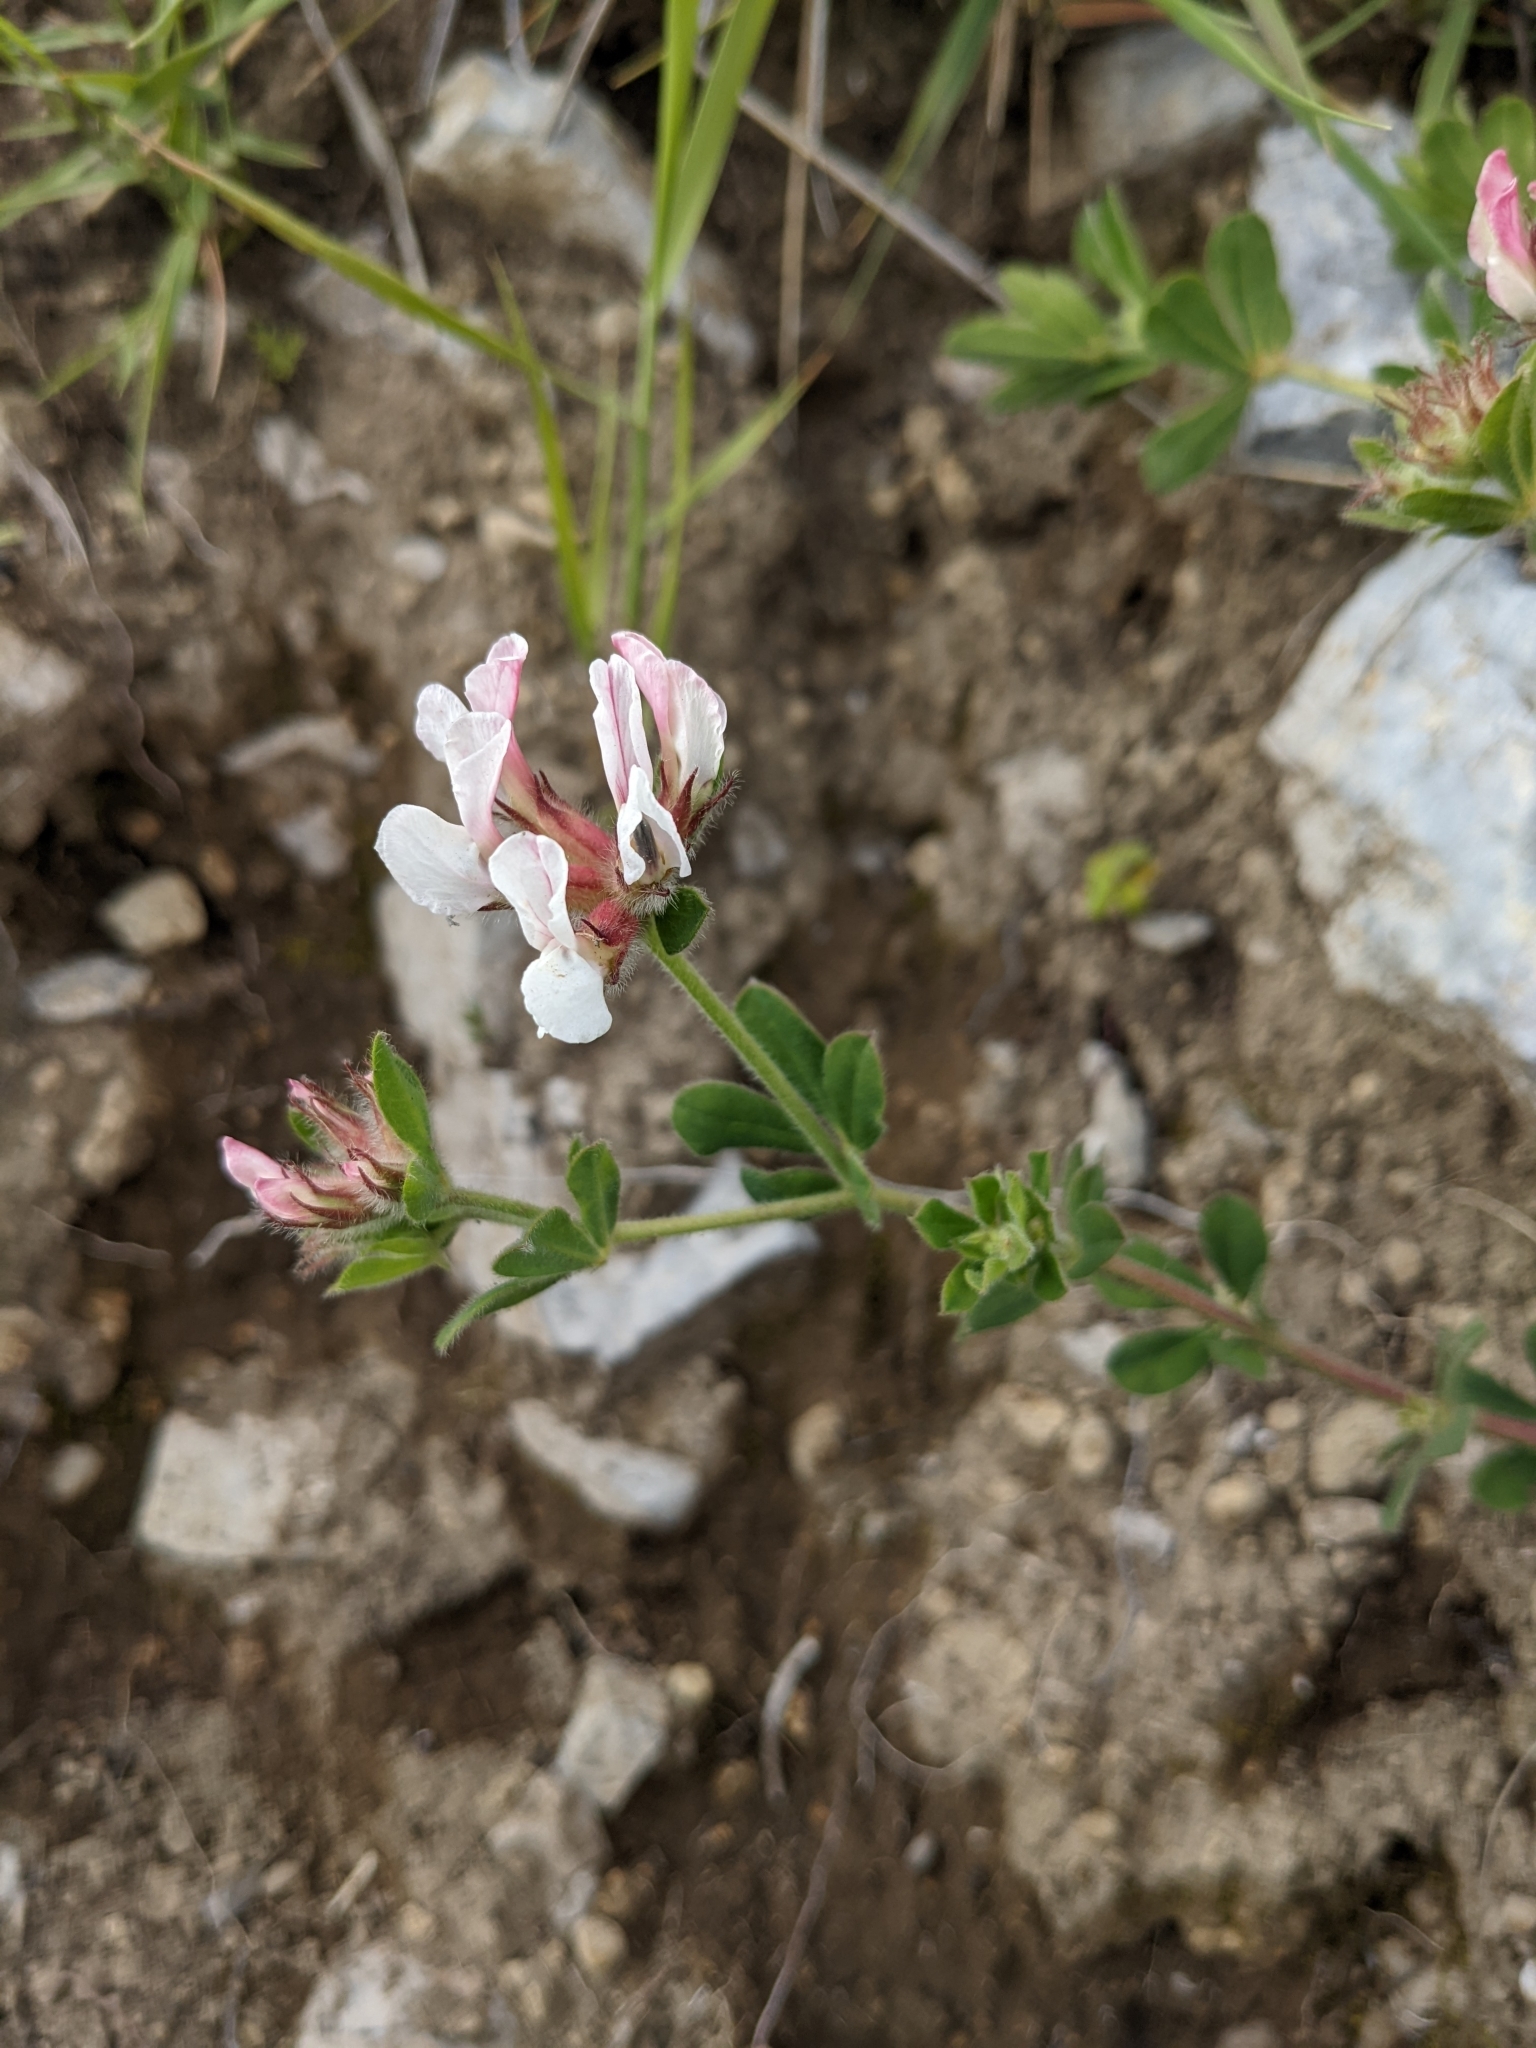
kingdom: Plantae
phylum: Tracheophyta
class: Magnoliopsida
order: Fabales
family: Fabaceae
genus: Lotus
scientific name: Lotus hirsutus
